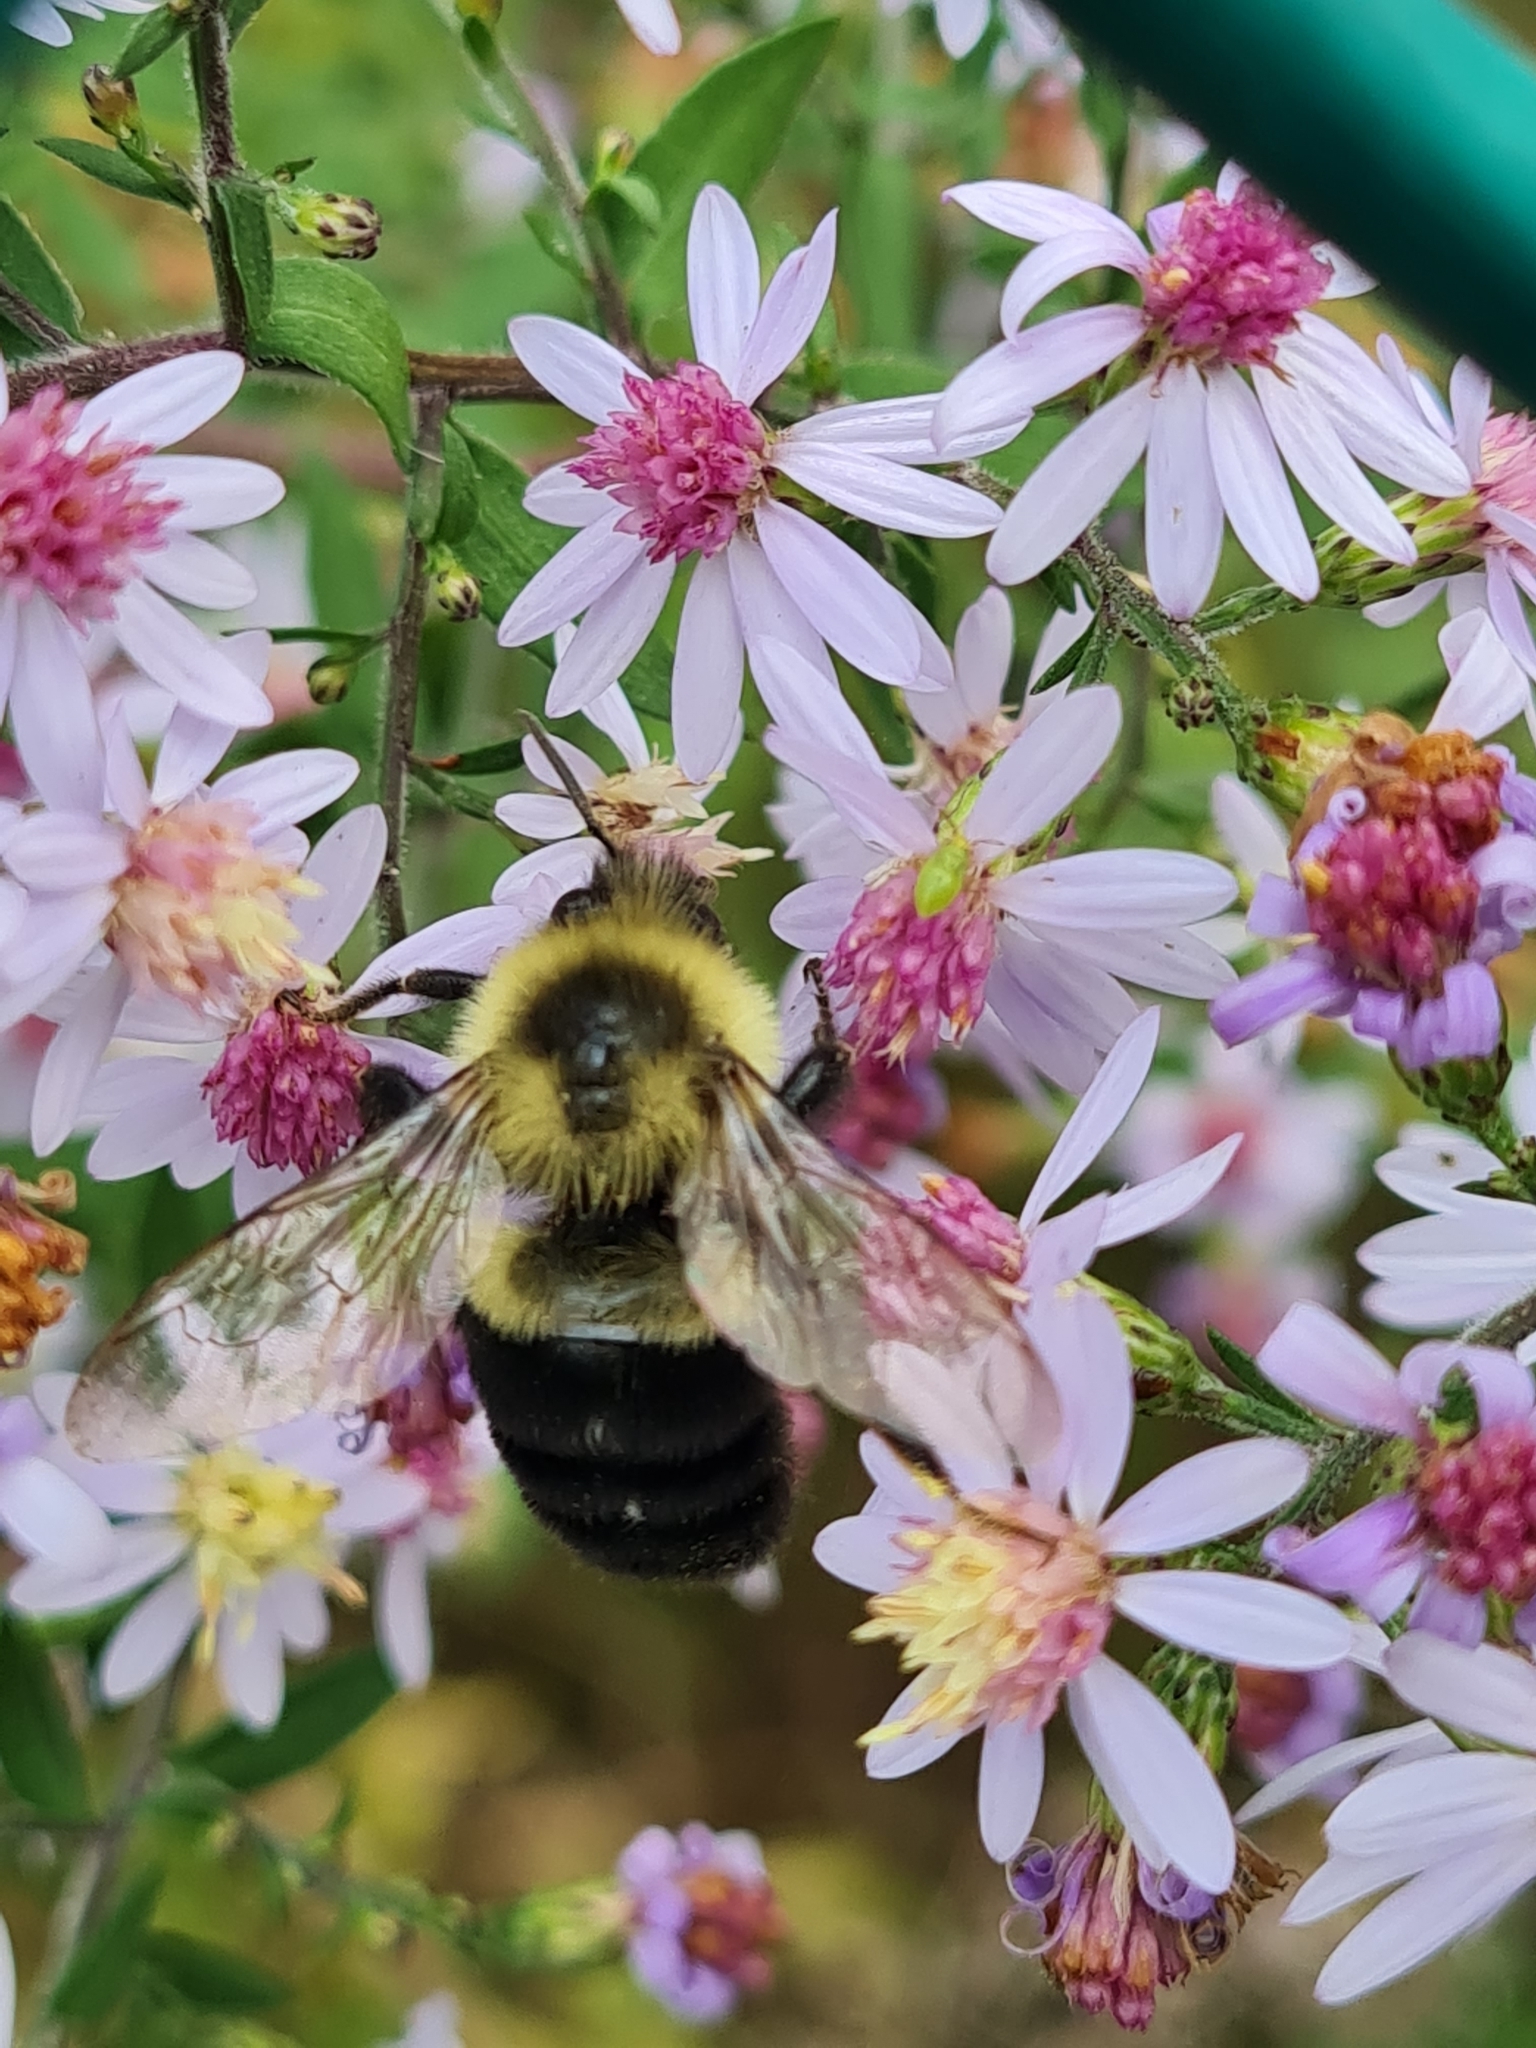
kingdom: Animalia
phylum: Arthropoda
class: Insecta
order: Hymenoptera
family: Apidae
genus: Bombus
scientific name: Bombus impatiens
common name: Common eastern bumble bee
